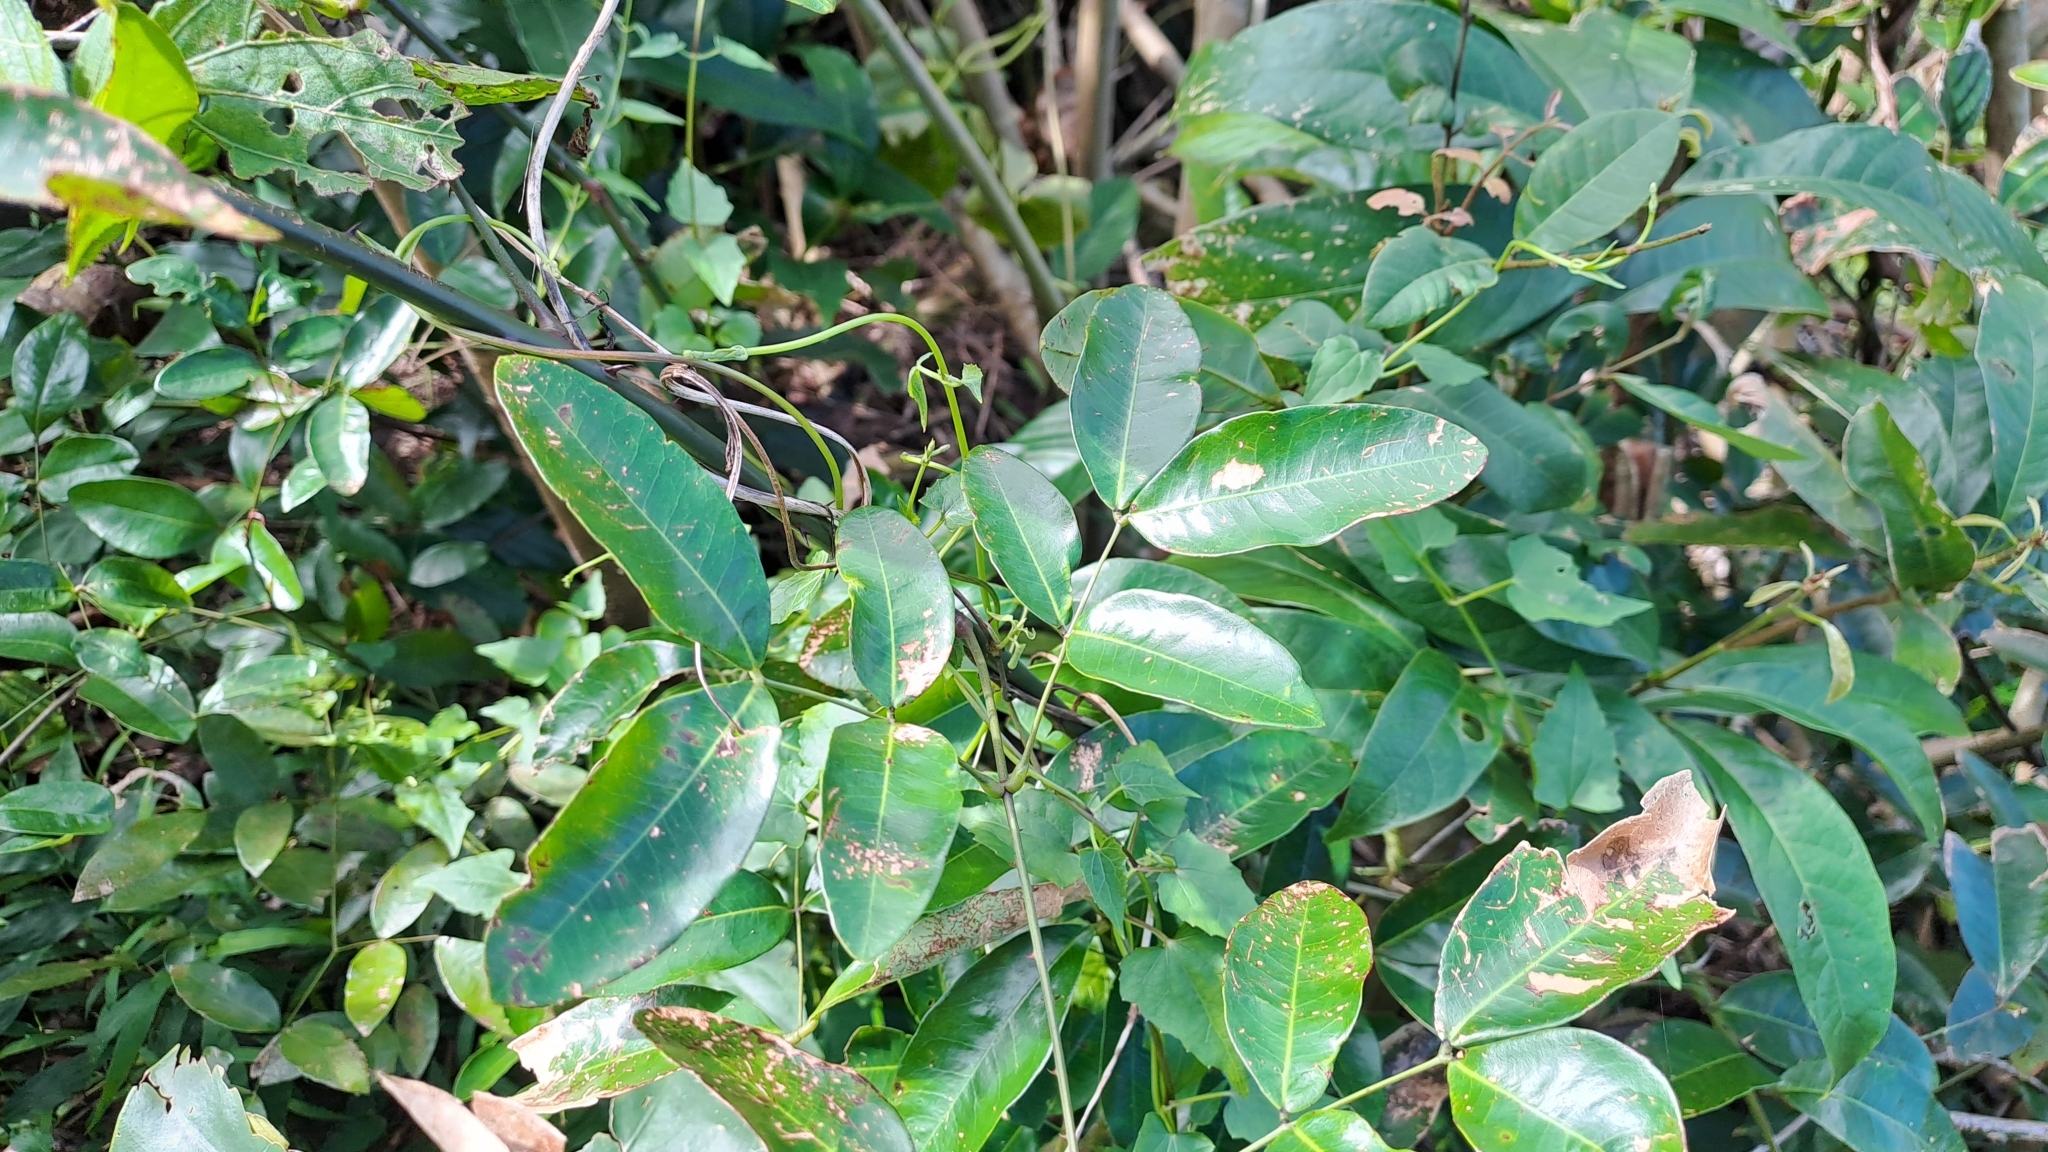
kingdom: Plantae
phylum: Tracheophyta
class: Magnoliopsida
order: Fabales
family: Fabaceae
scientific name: Fabaceae
